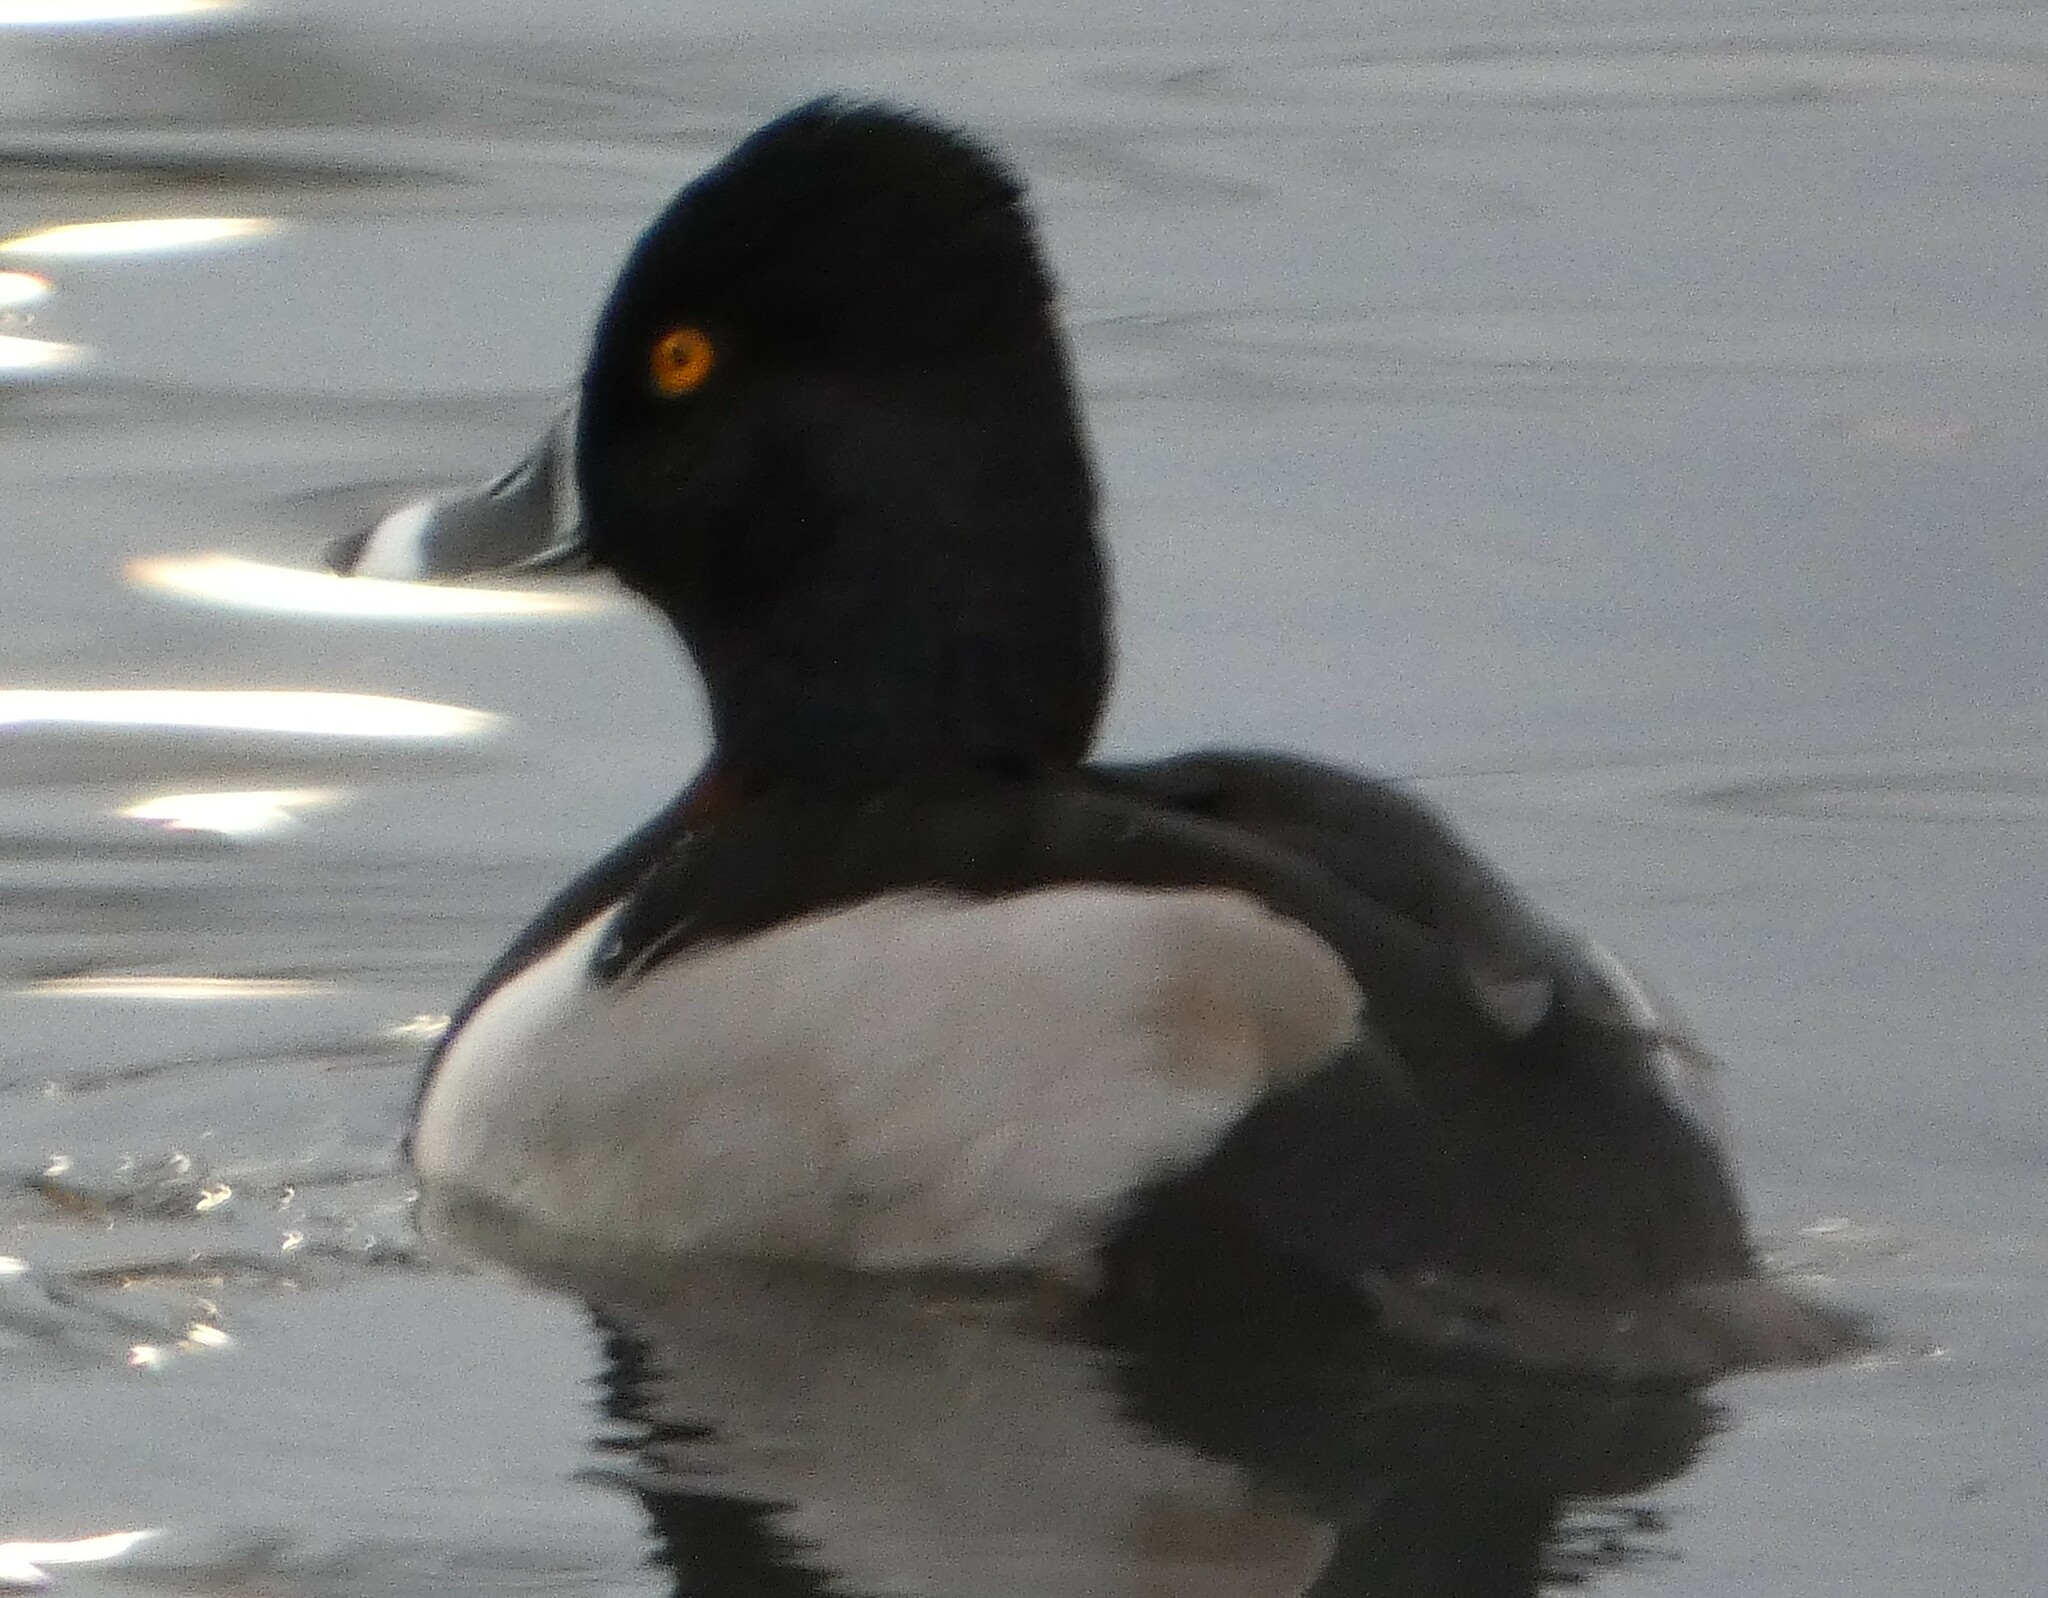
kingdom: Animalia
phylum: Chordata
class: Aves
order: Anseriformes
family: Anatidae
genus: Aythya
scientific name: Aythya collaris
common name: Ring-necked duck
